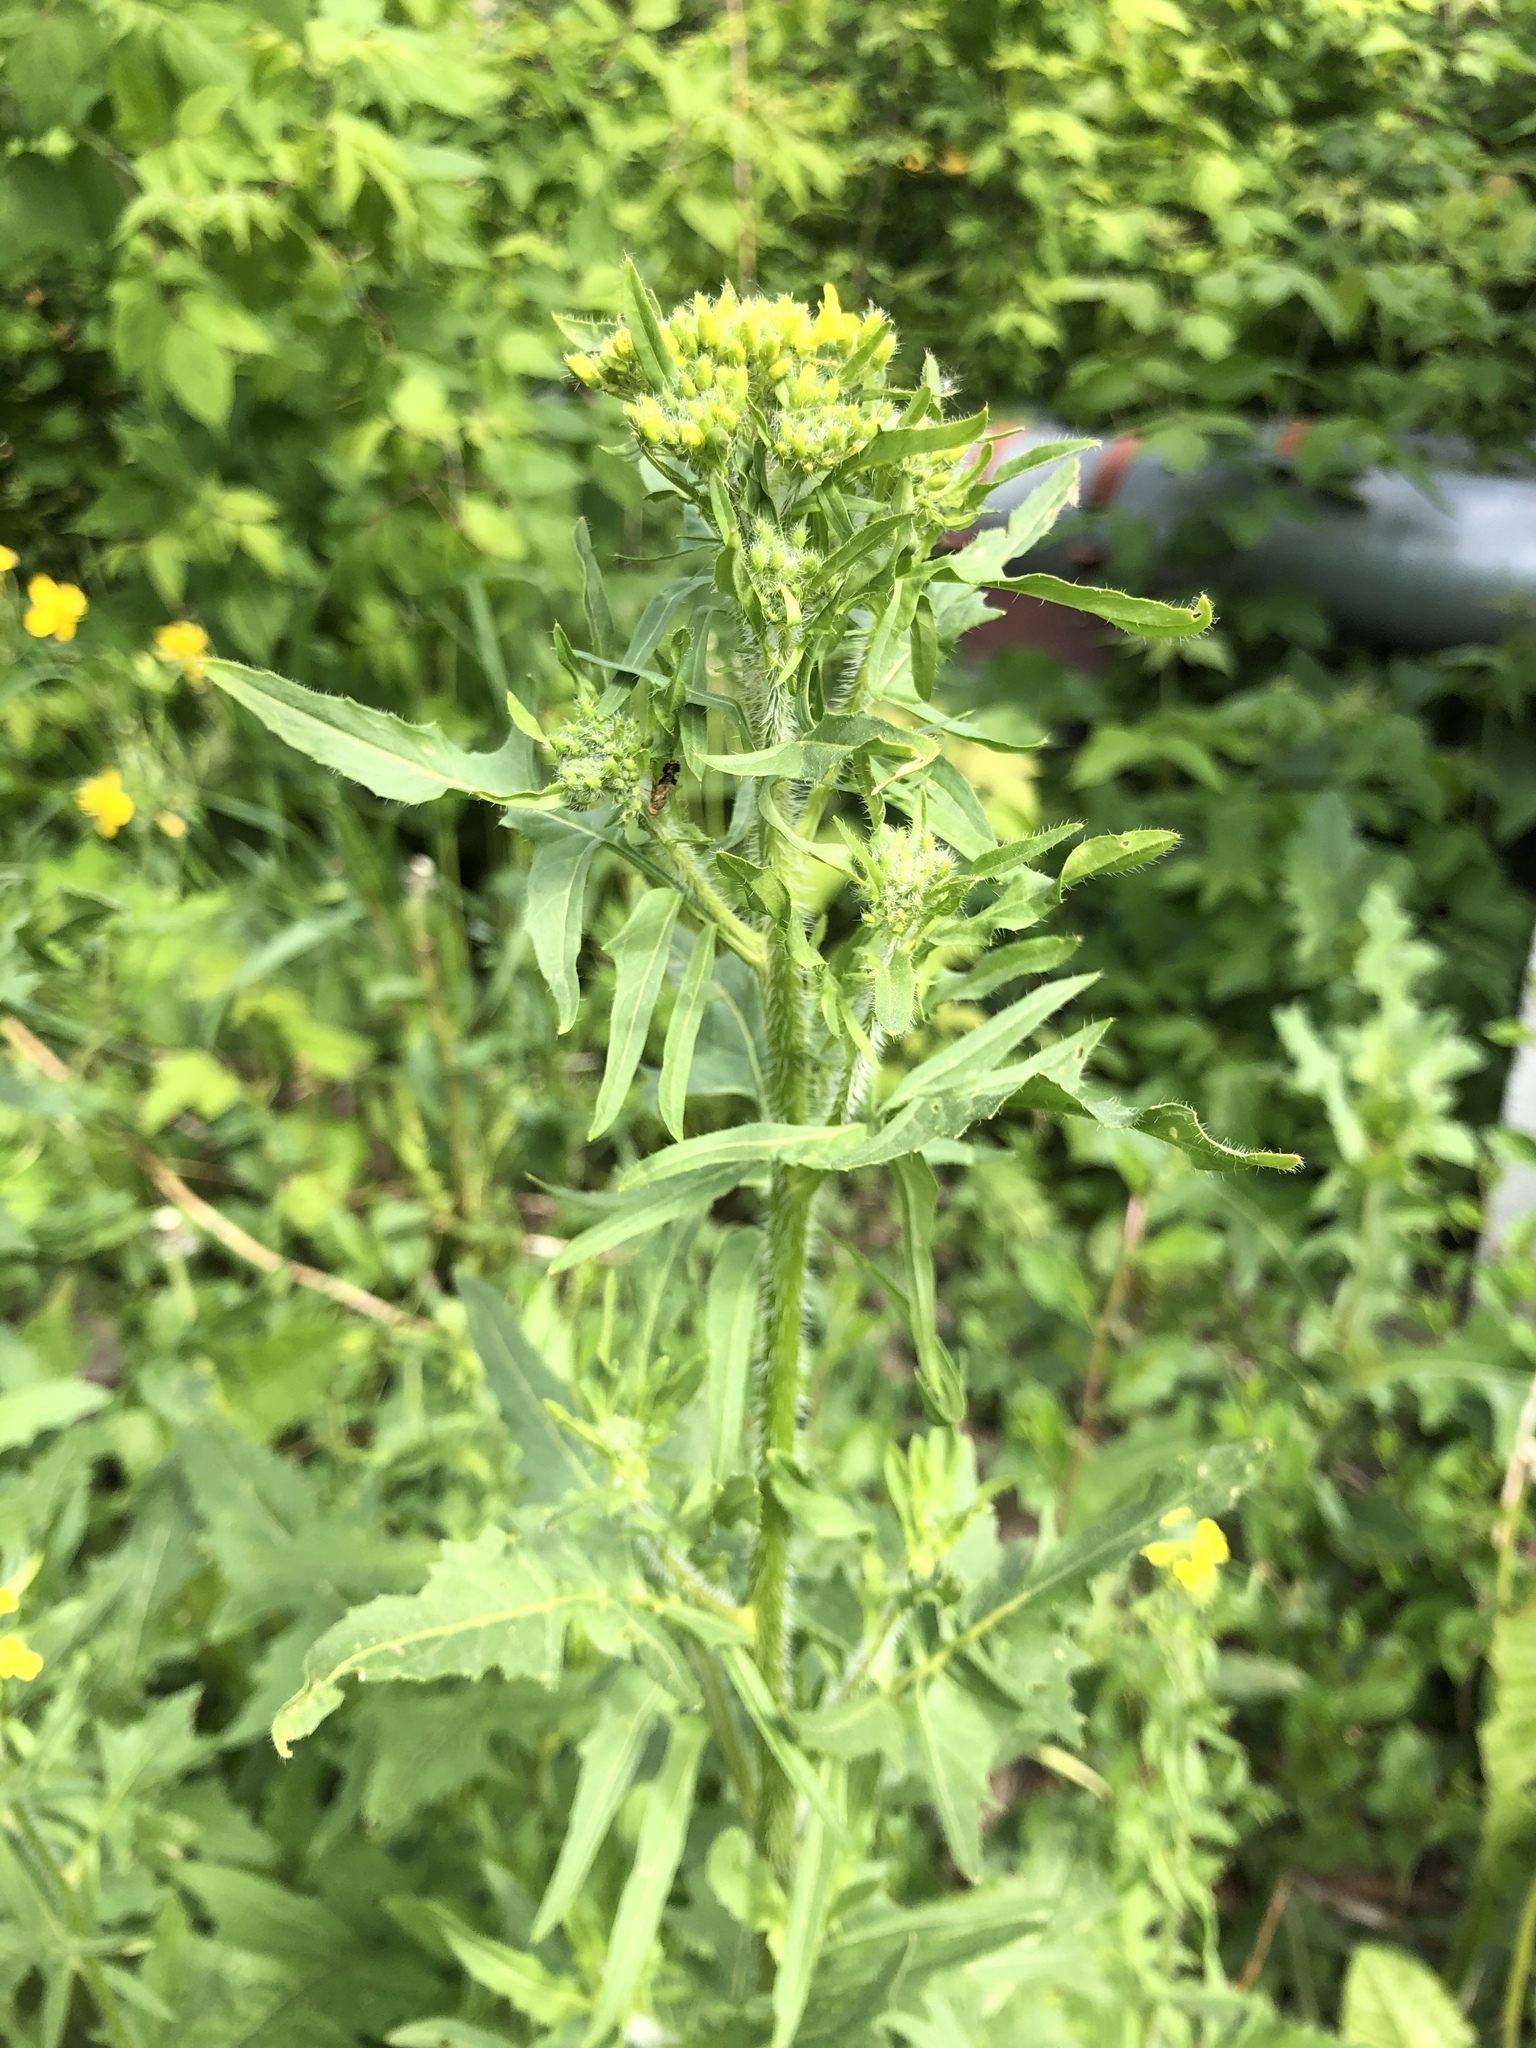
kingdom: Plantae
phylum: Tracheophyta
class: Magnoliopsida
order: Brassicales
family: Brassicaceae
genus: Sisymbrium
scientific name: Sisymbrium loeselii
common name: False london-rocket
